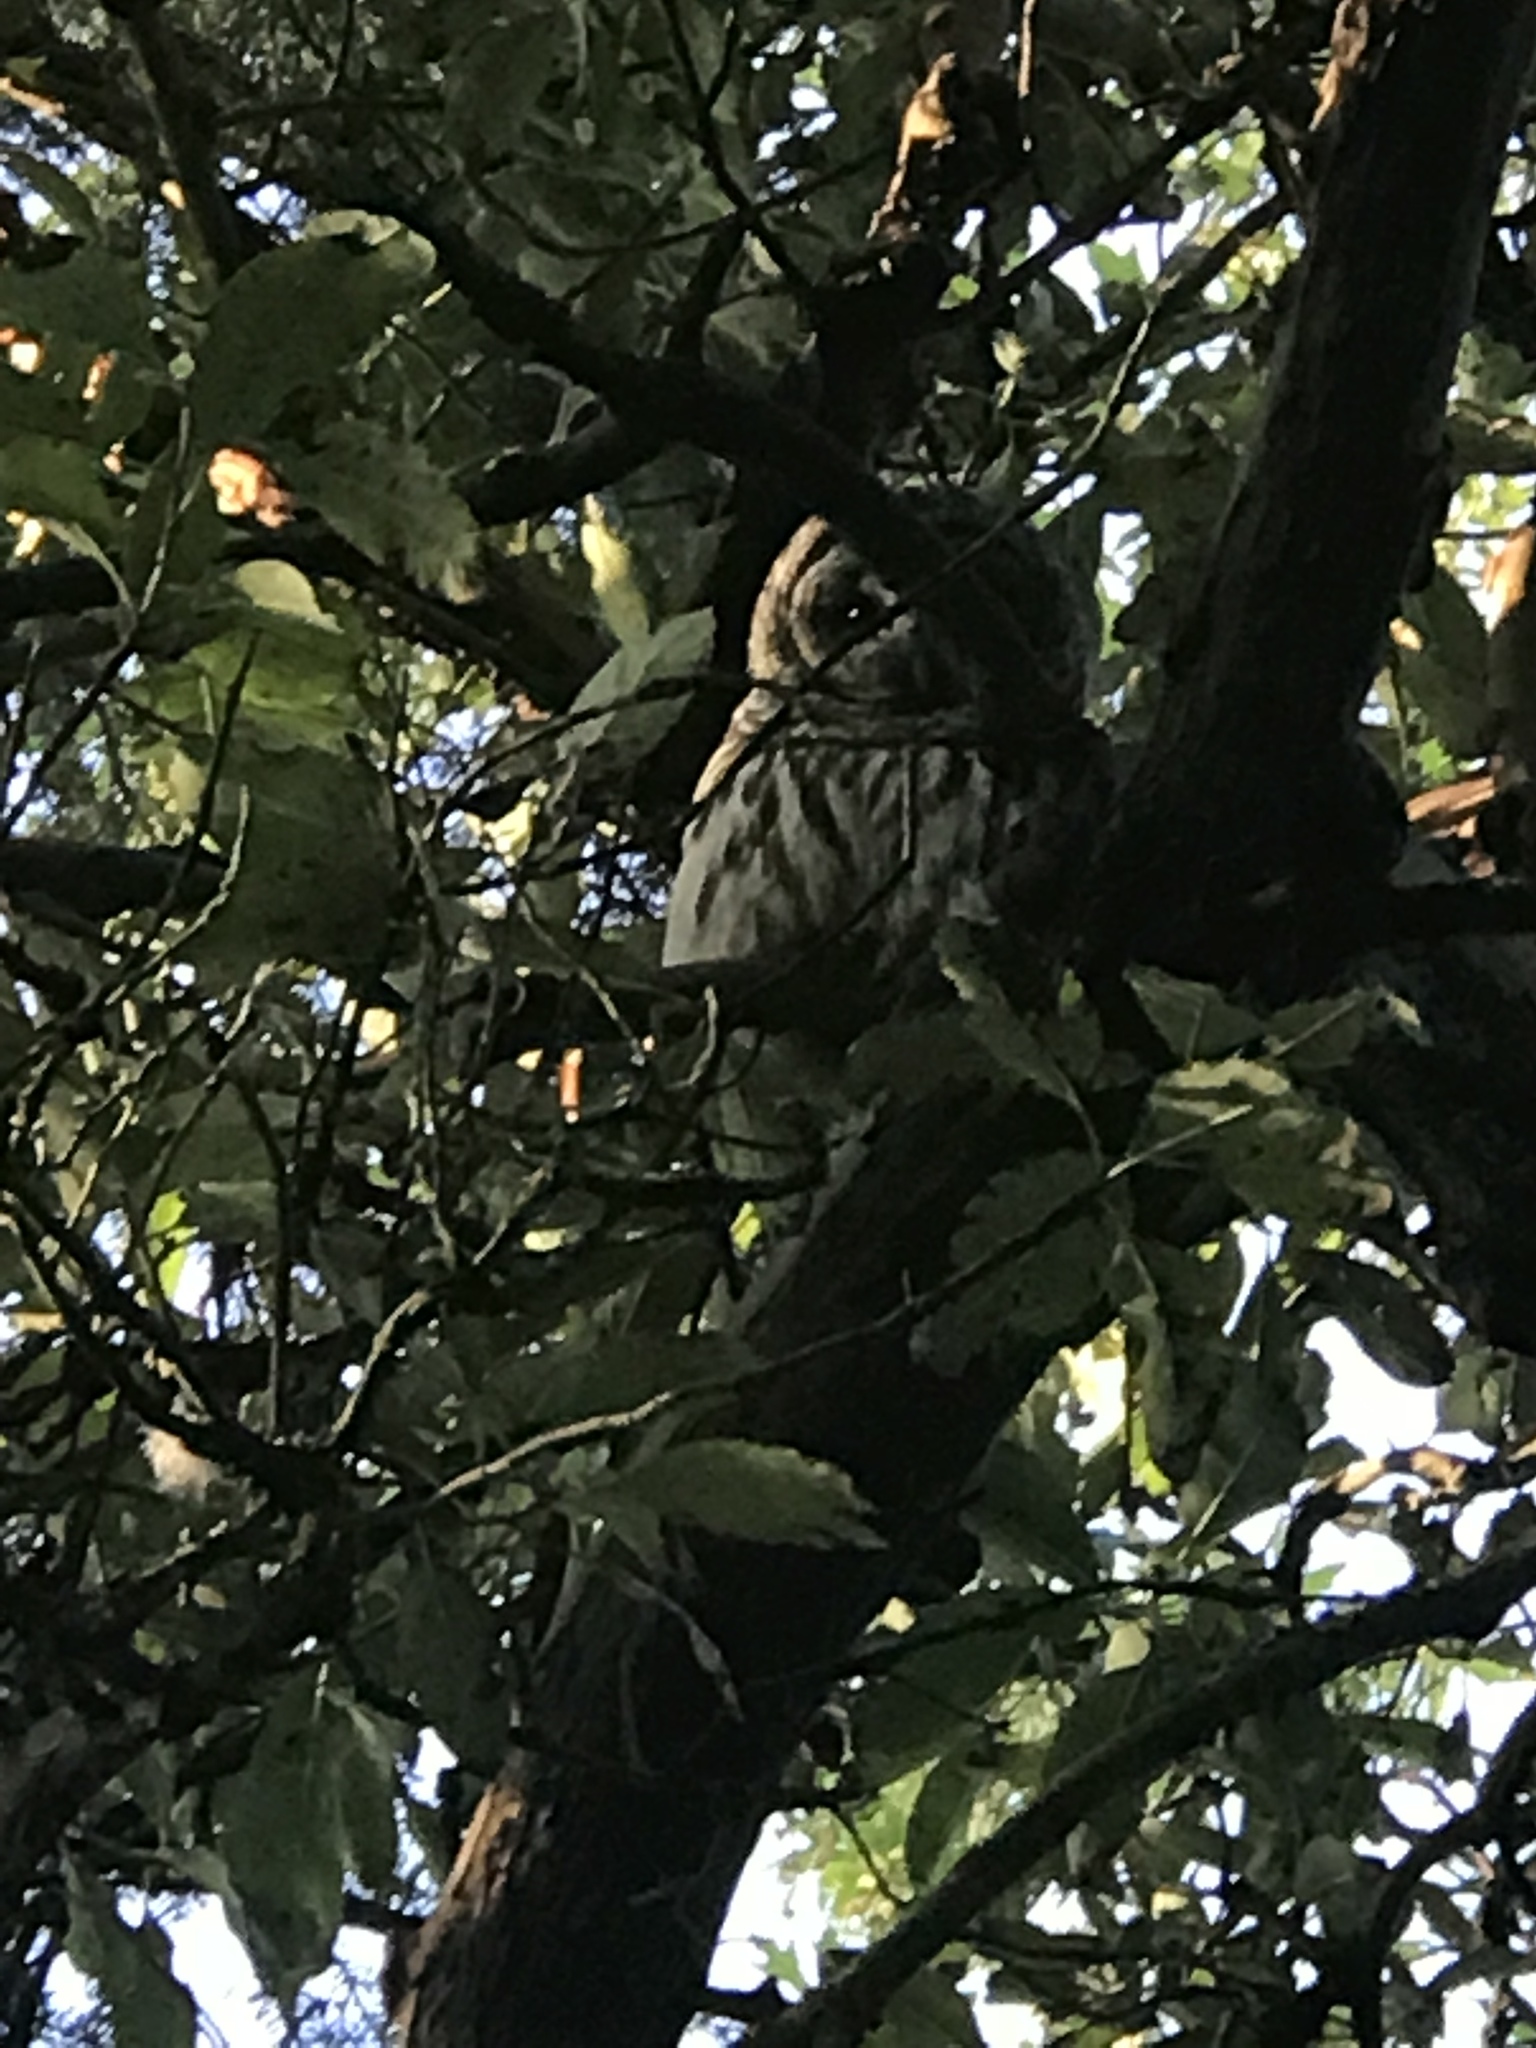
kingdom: Animalia
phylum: Chordata
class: Aves
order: Strigiformes
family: Strigidae
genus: Strix
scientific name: Strix varia
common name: Barred owl
